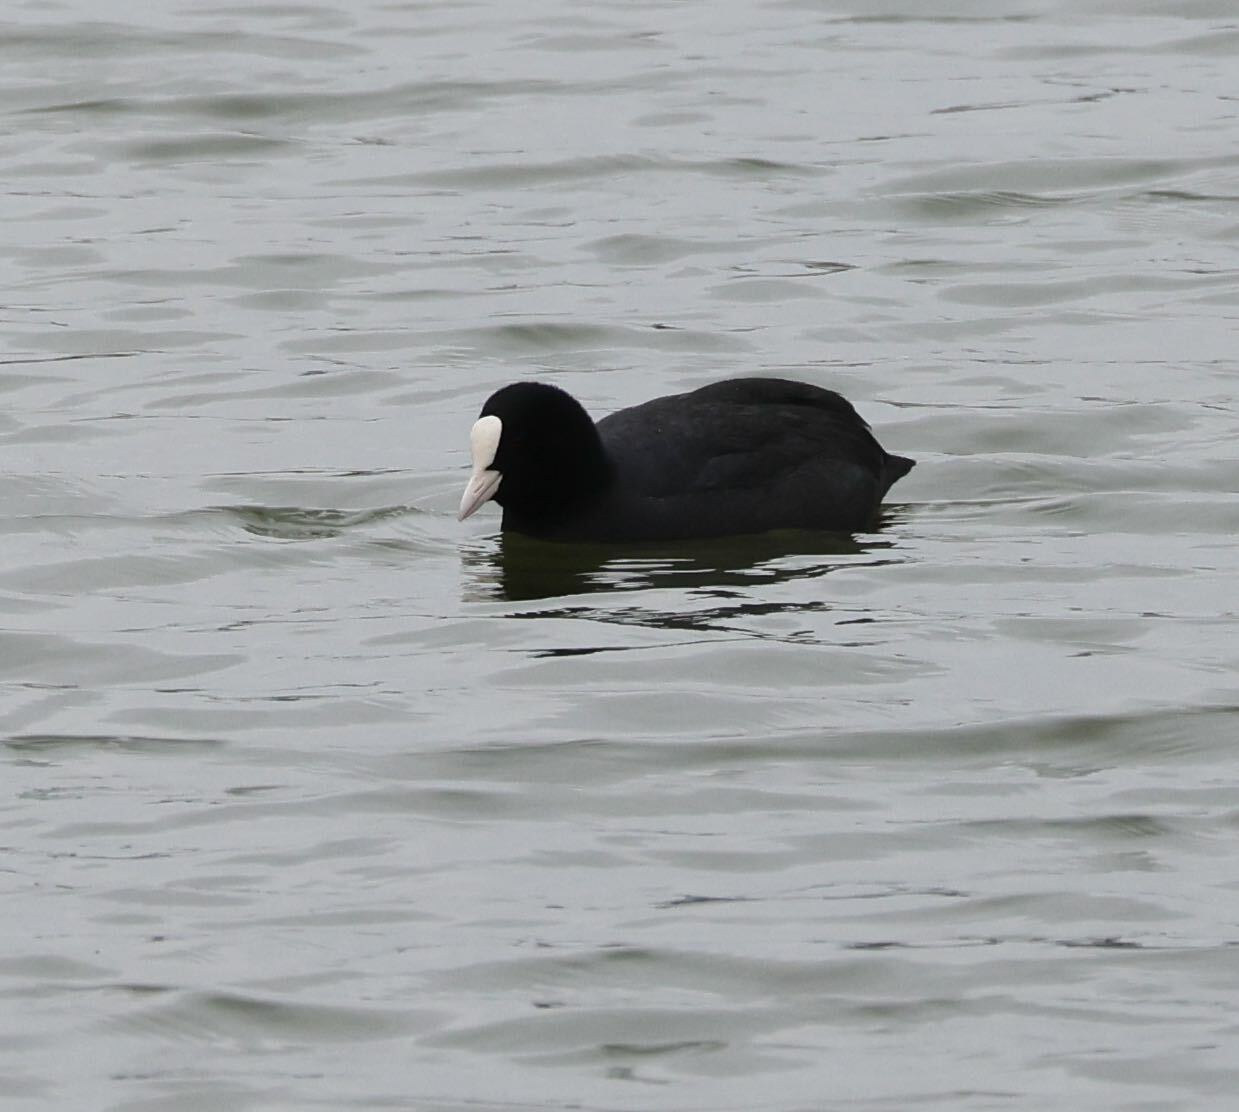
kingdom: Animalia
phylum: Chordata
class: Aves
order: Gruiformes
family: Rallidae
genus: Fulica
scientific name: Fulica atra
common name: Eurasian coot
